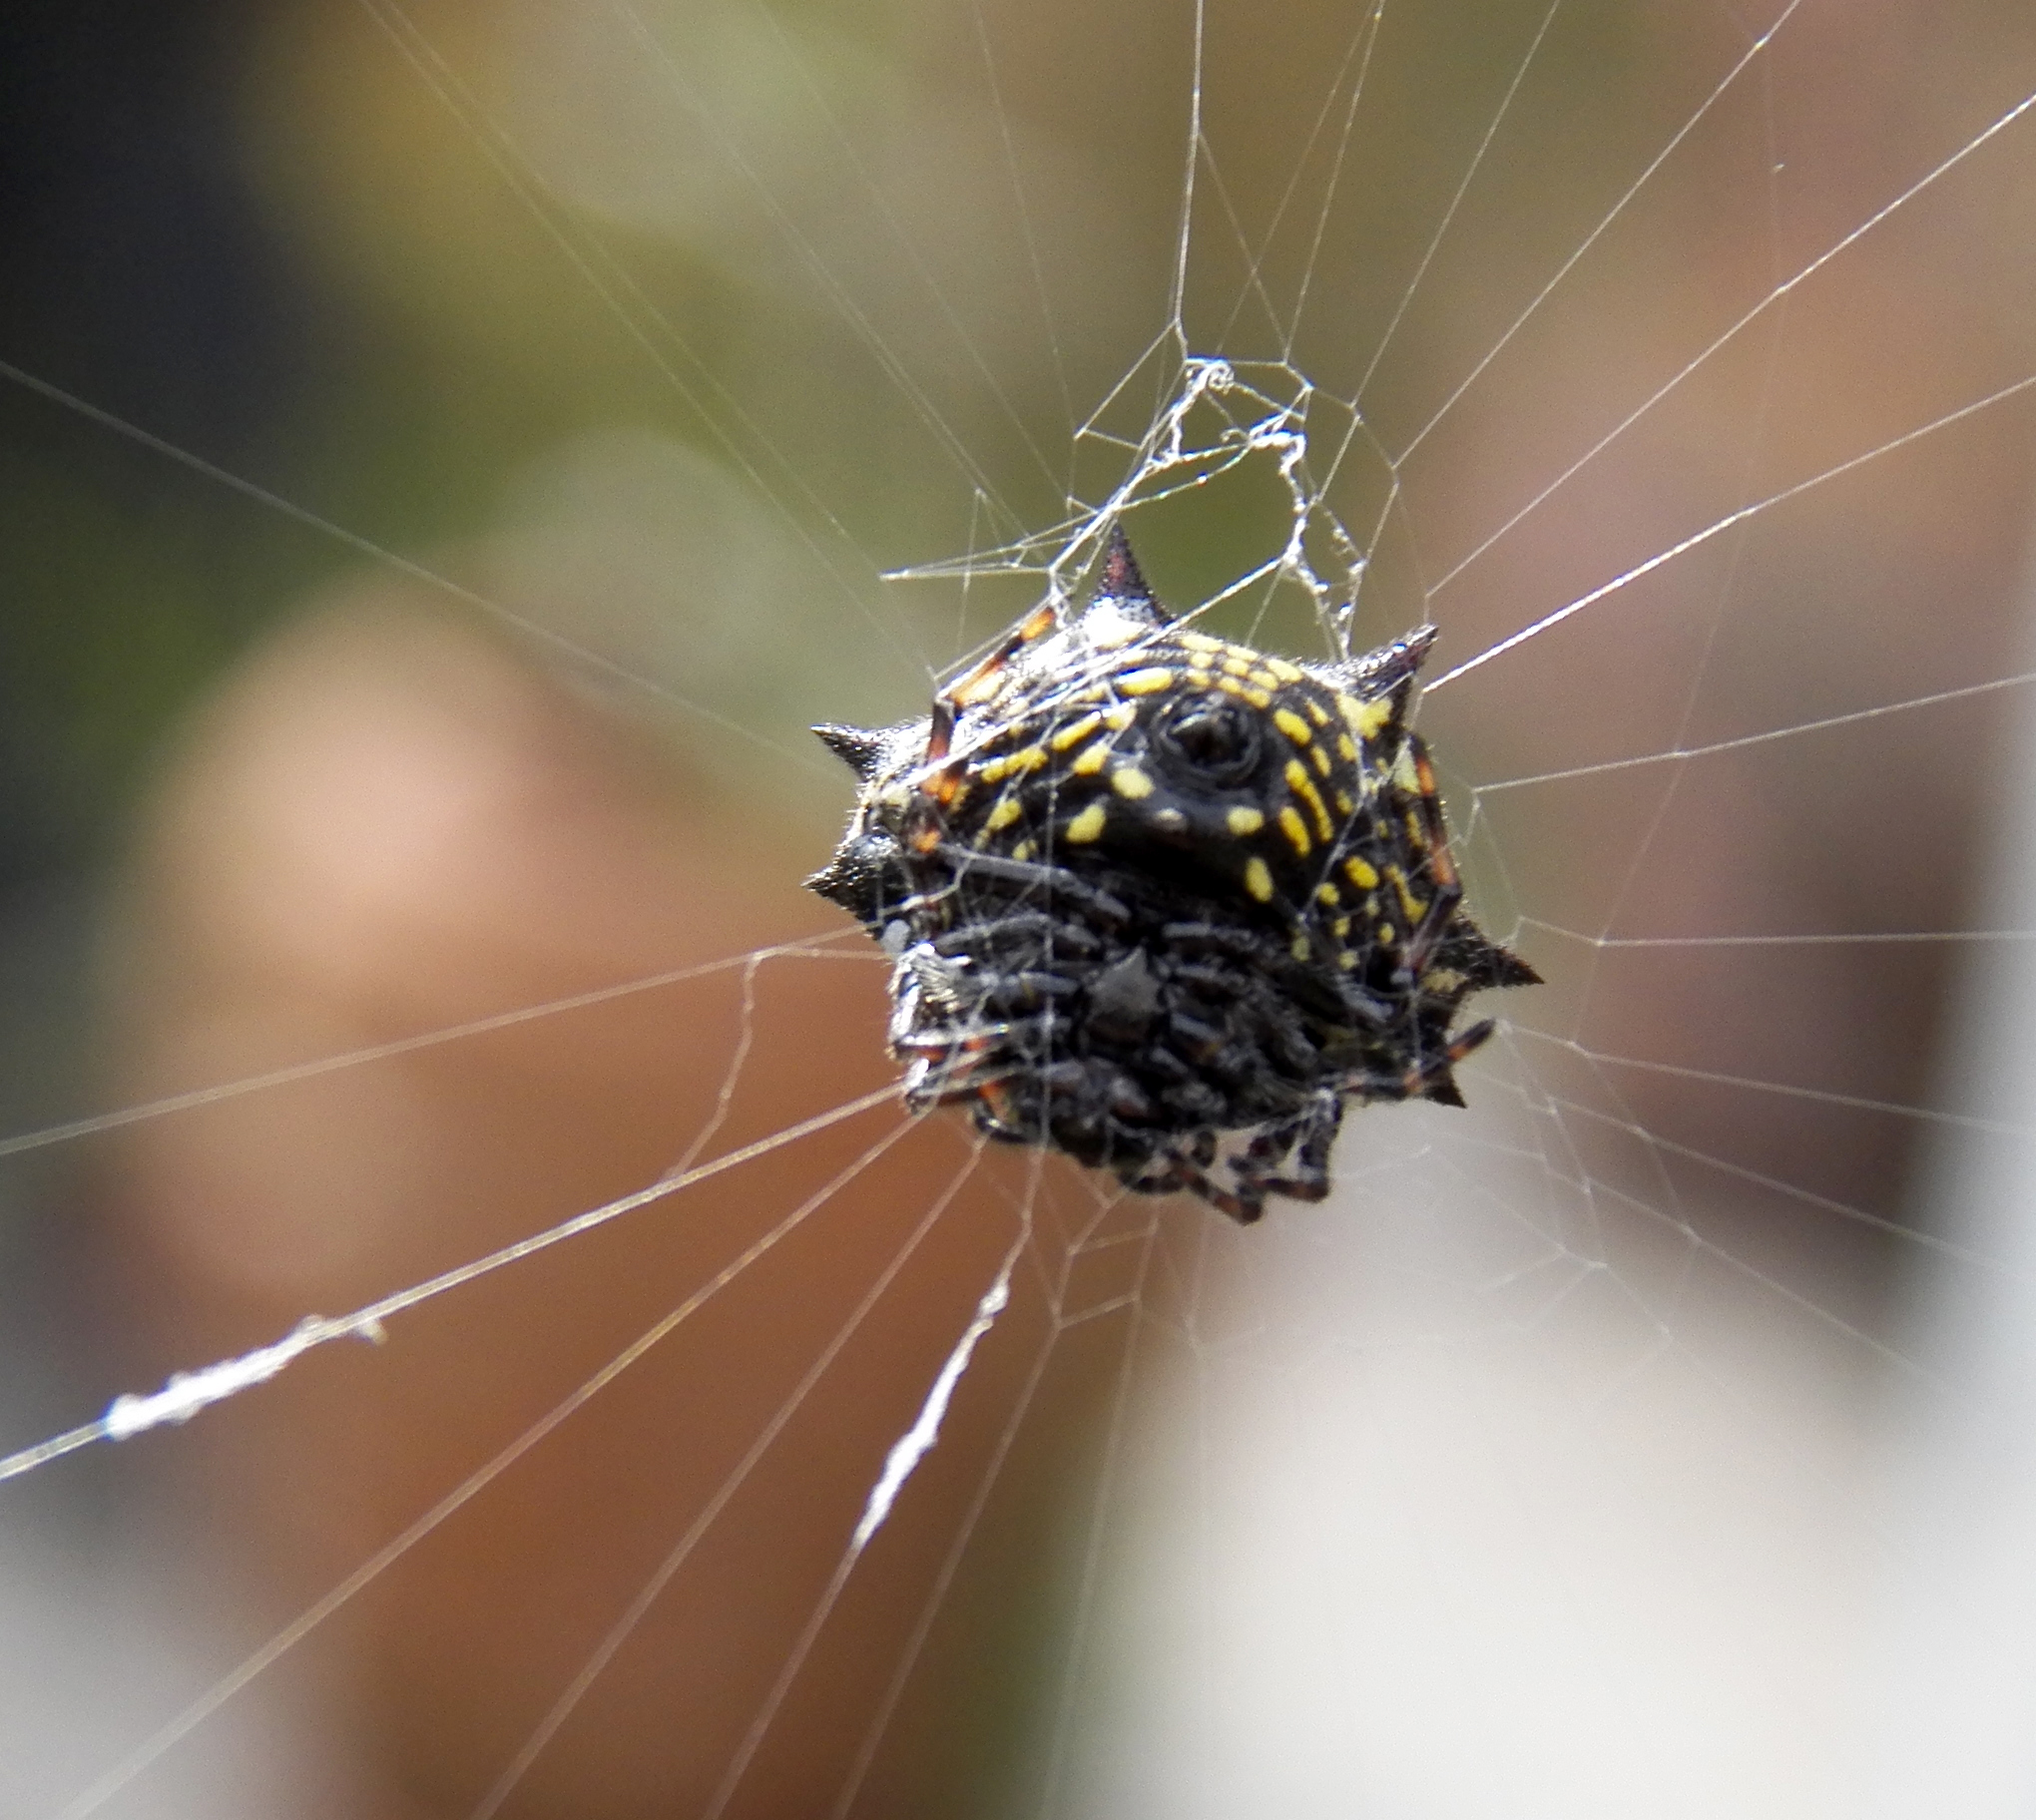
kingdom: Animalia
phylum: Arthropoda
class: Arachnida
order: Araneae
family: Araneidae
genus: Gasteracantha
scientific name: Gasteracantha cancriformis
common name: Orb weavers
